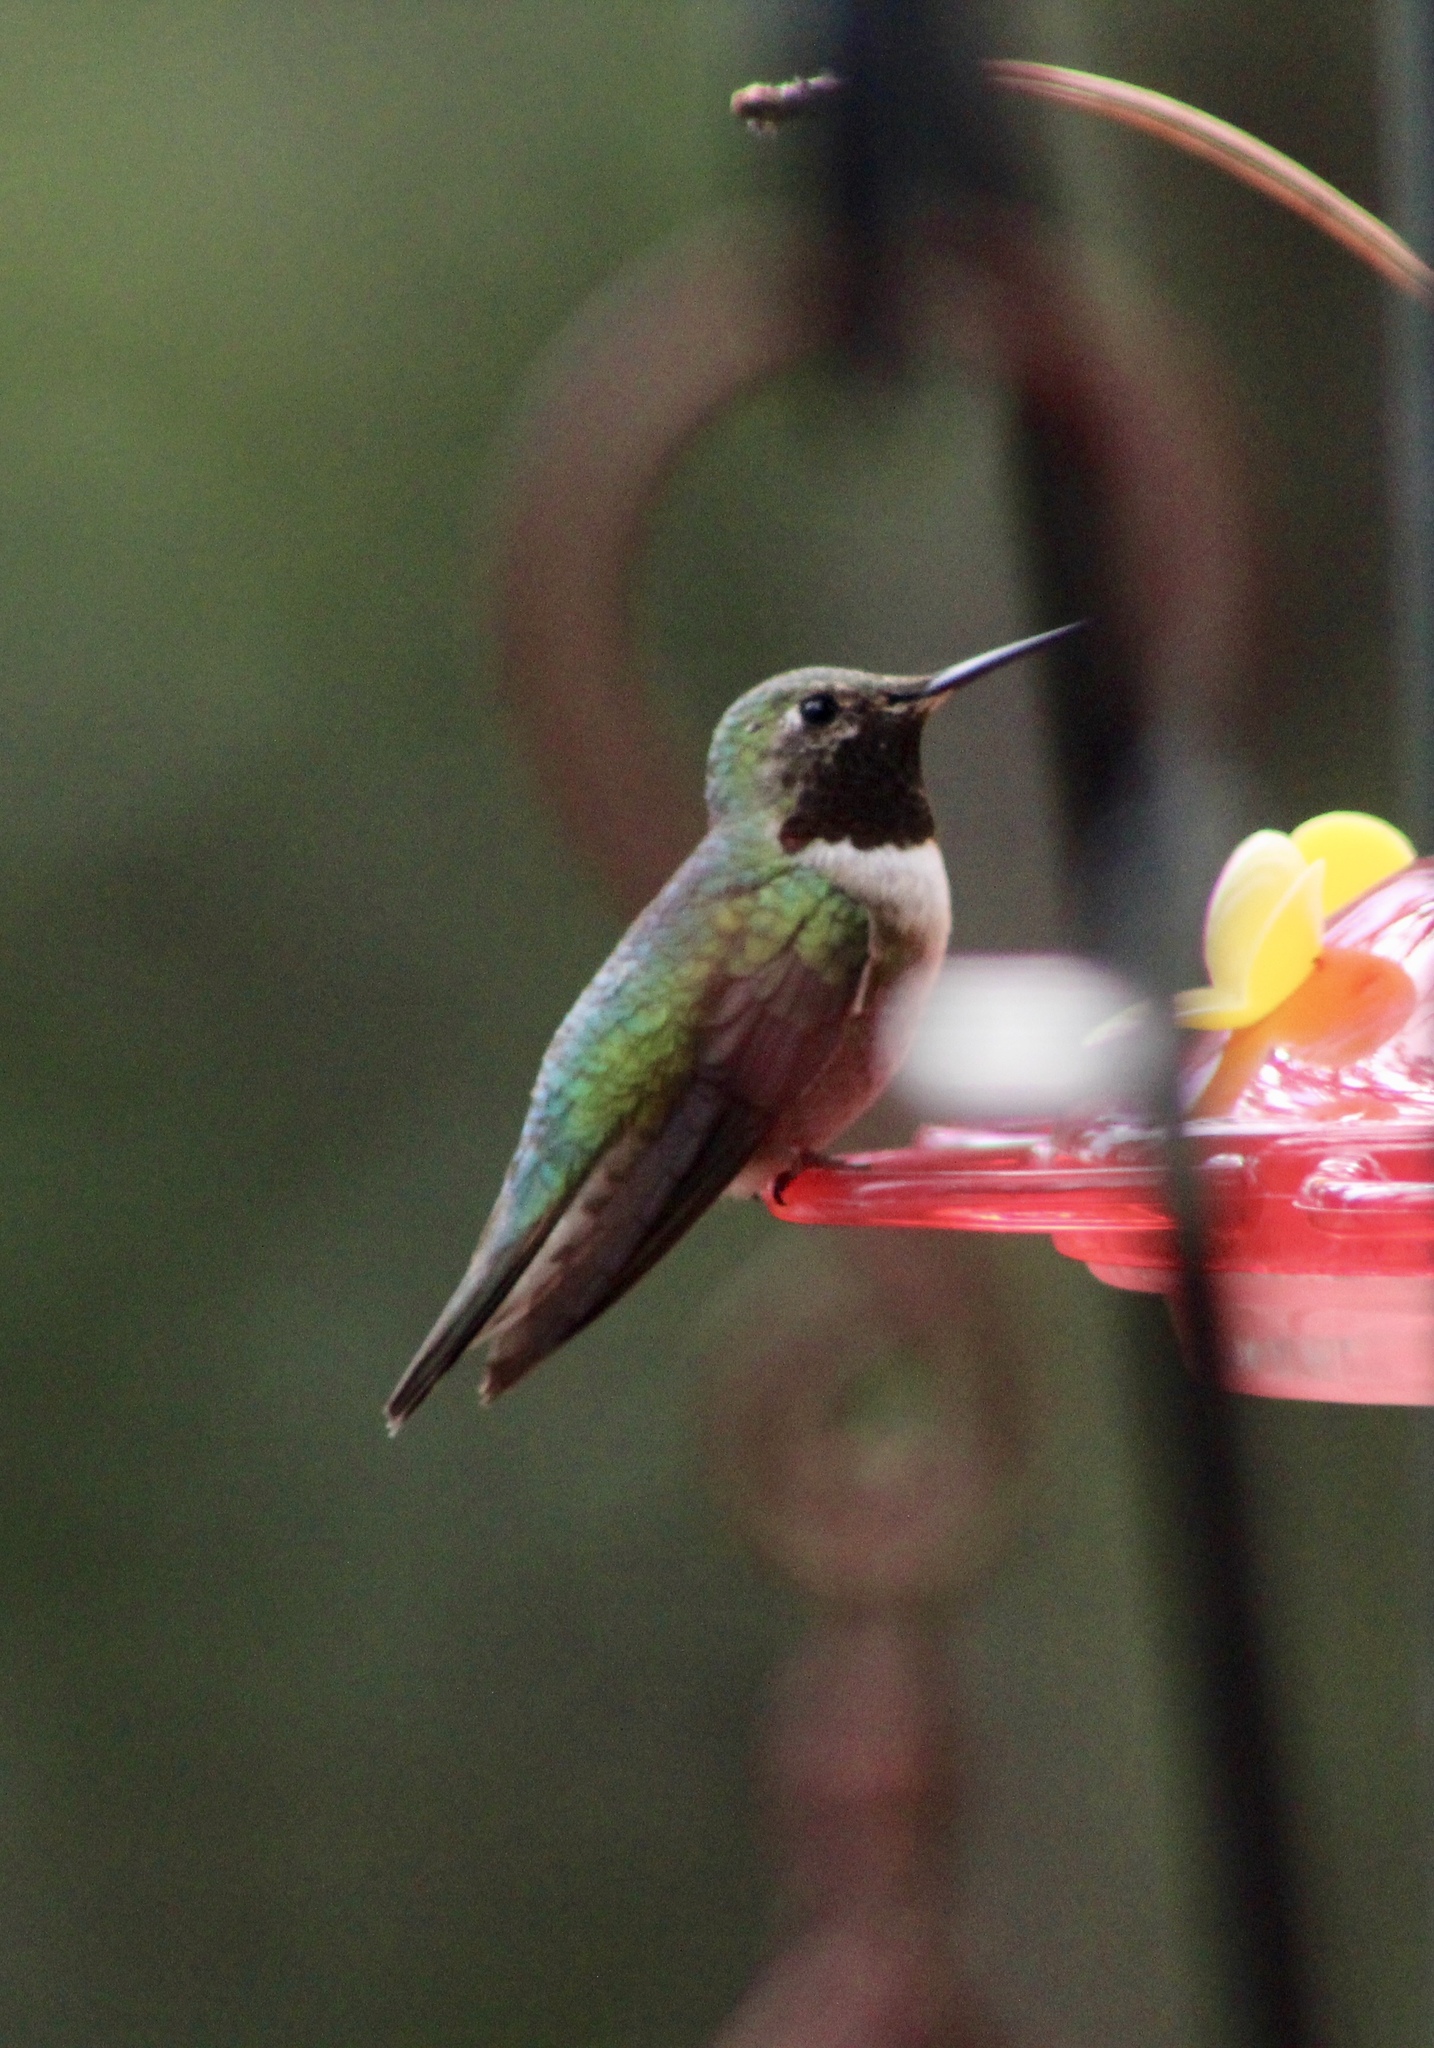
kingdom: Animalia
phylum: Chordata
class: Aves
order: Apodiformes
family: Trochilidae
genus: Selasphorus
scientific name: Selasphorus platycercus
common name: Broad-tailed hummingbird
